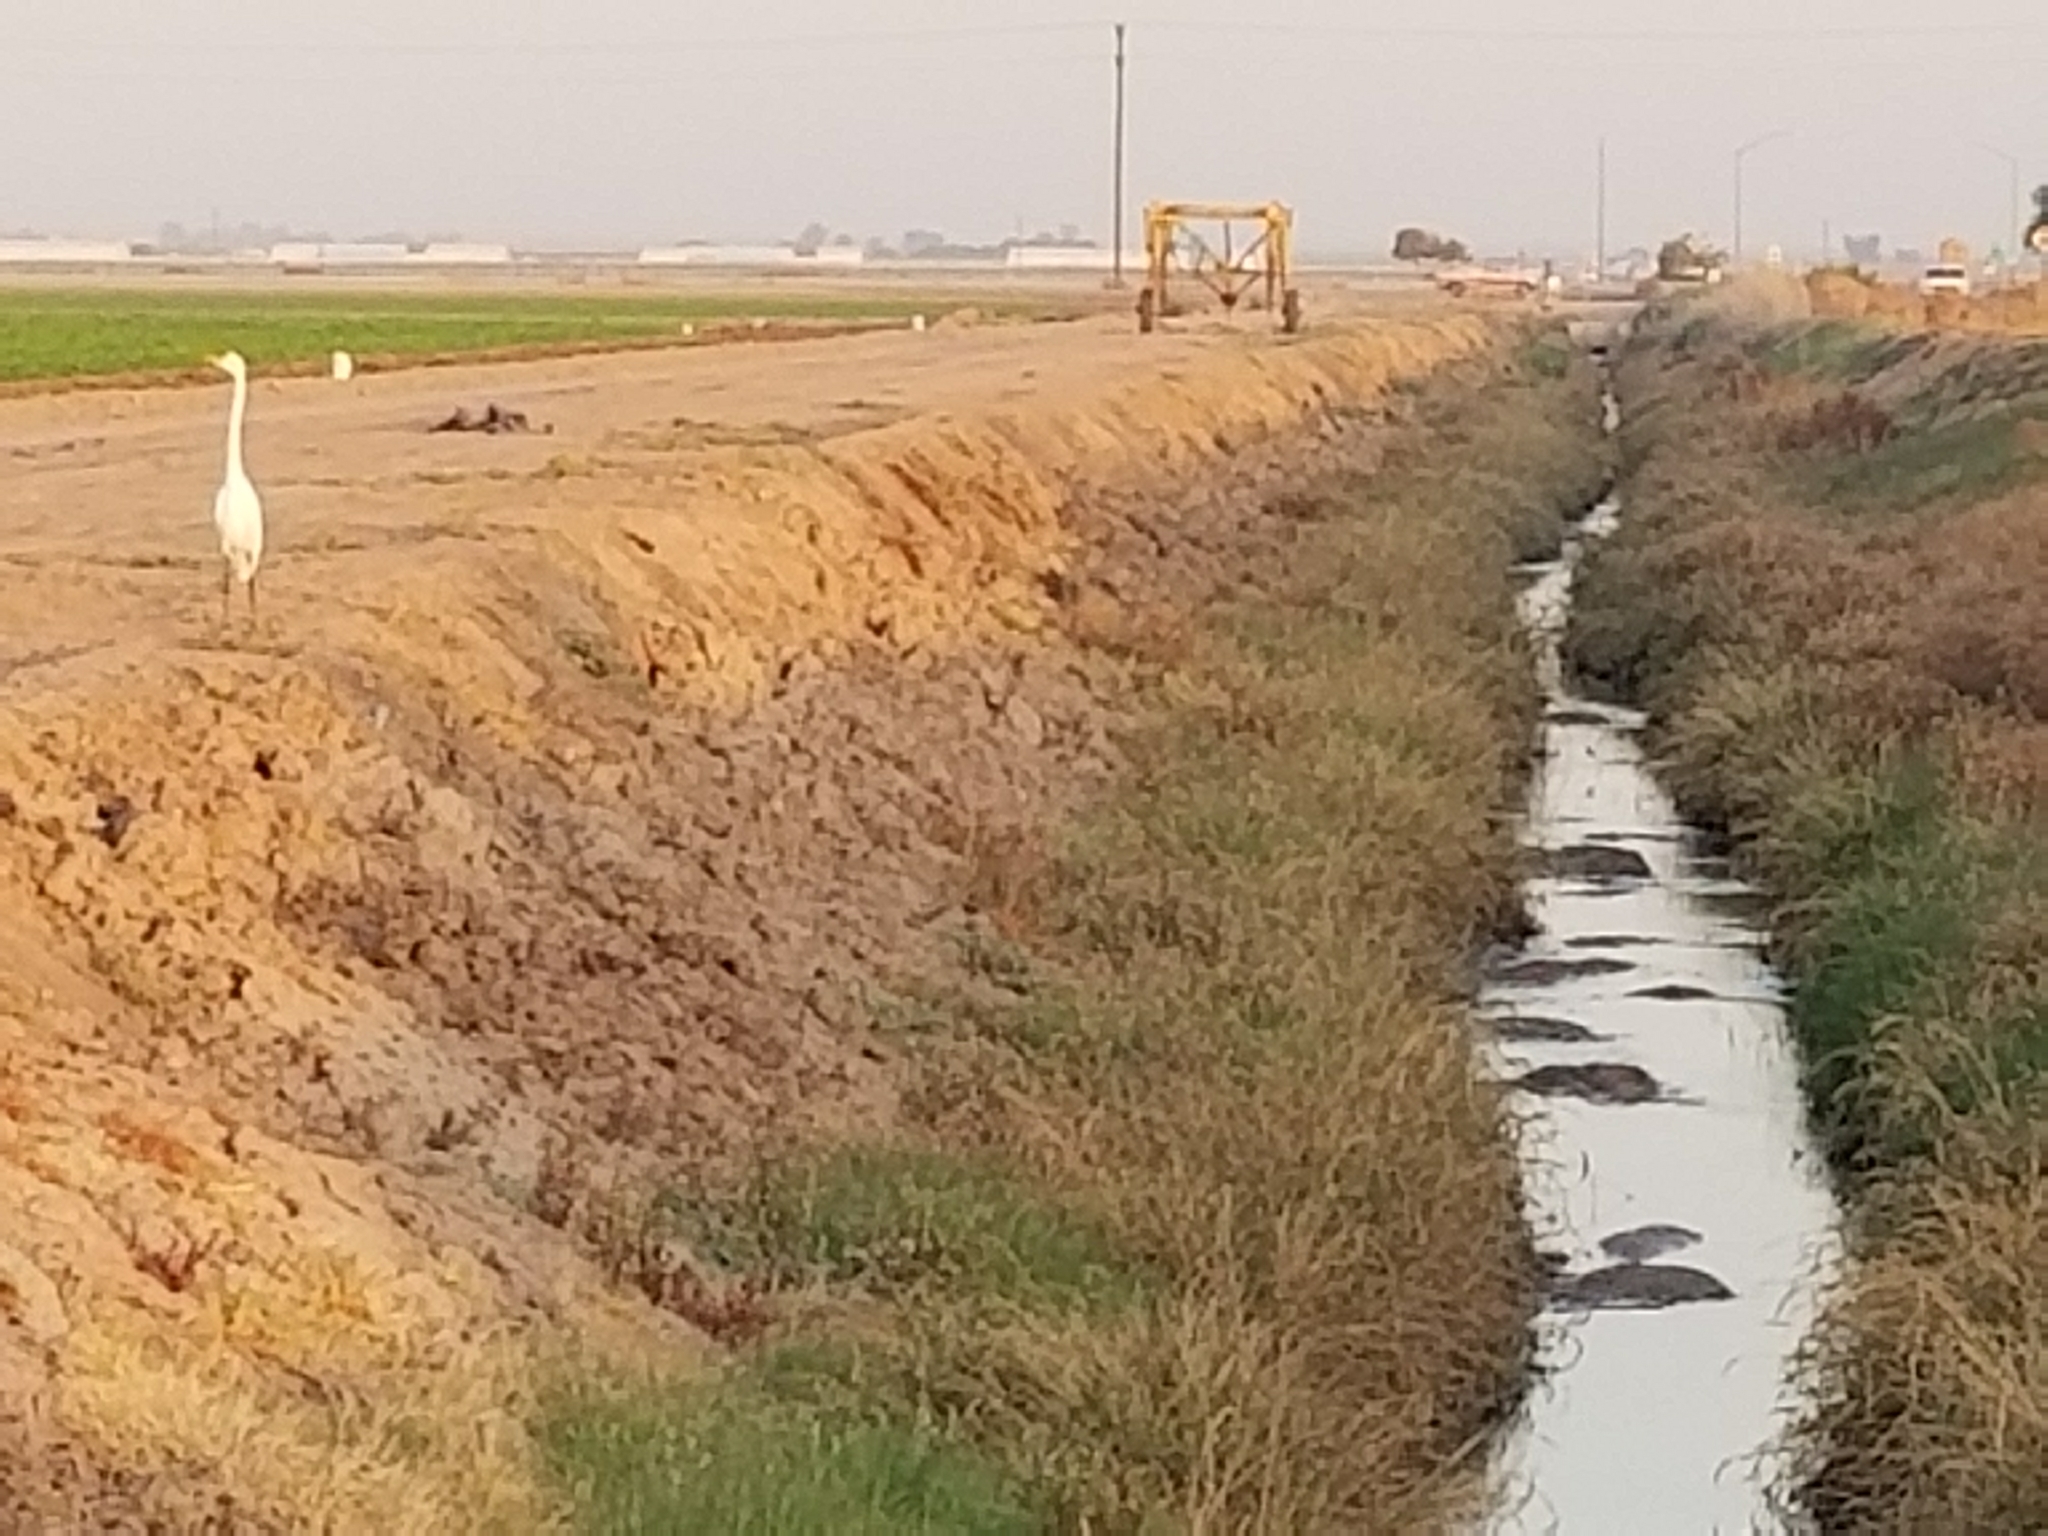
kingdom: Animalia
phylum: Chordata
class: Aves
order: Pelecaniformes
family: Ardeidae
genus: Ardea
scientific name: Ardea alba
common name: Great egret
